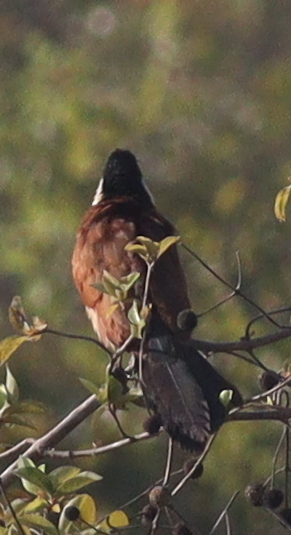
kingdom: Animalia
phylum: Chordata
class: Aves
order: Cuculiformes
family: Cuculidae
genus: Centropus
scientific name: Centropus senegalensis
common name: Senegal coucal
